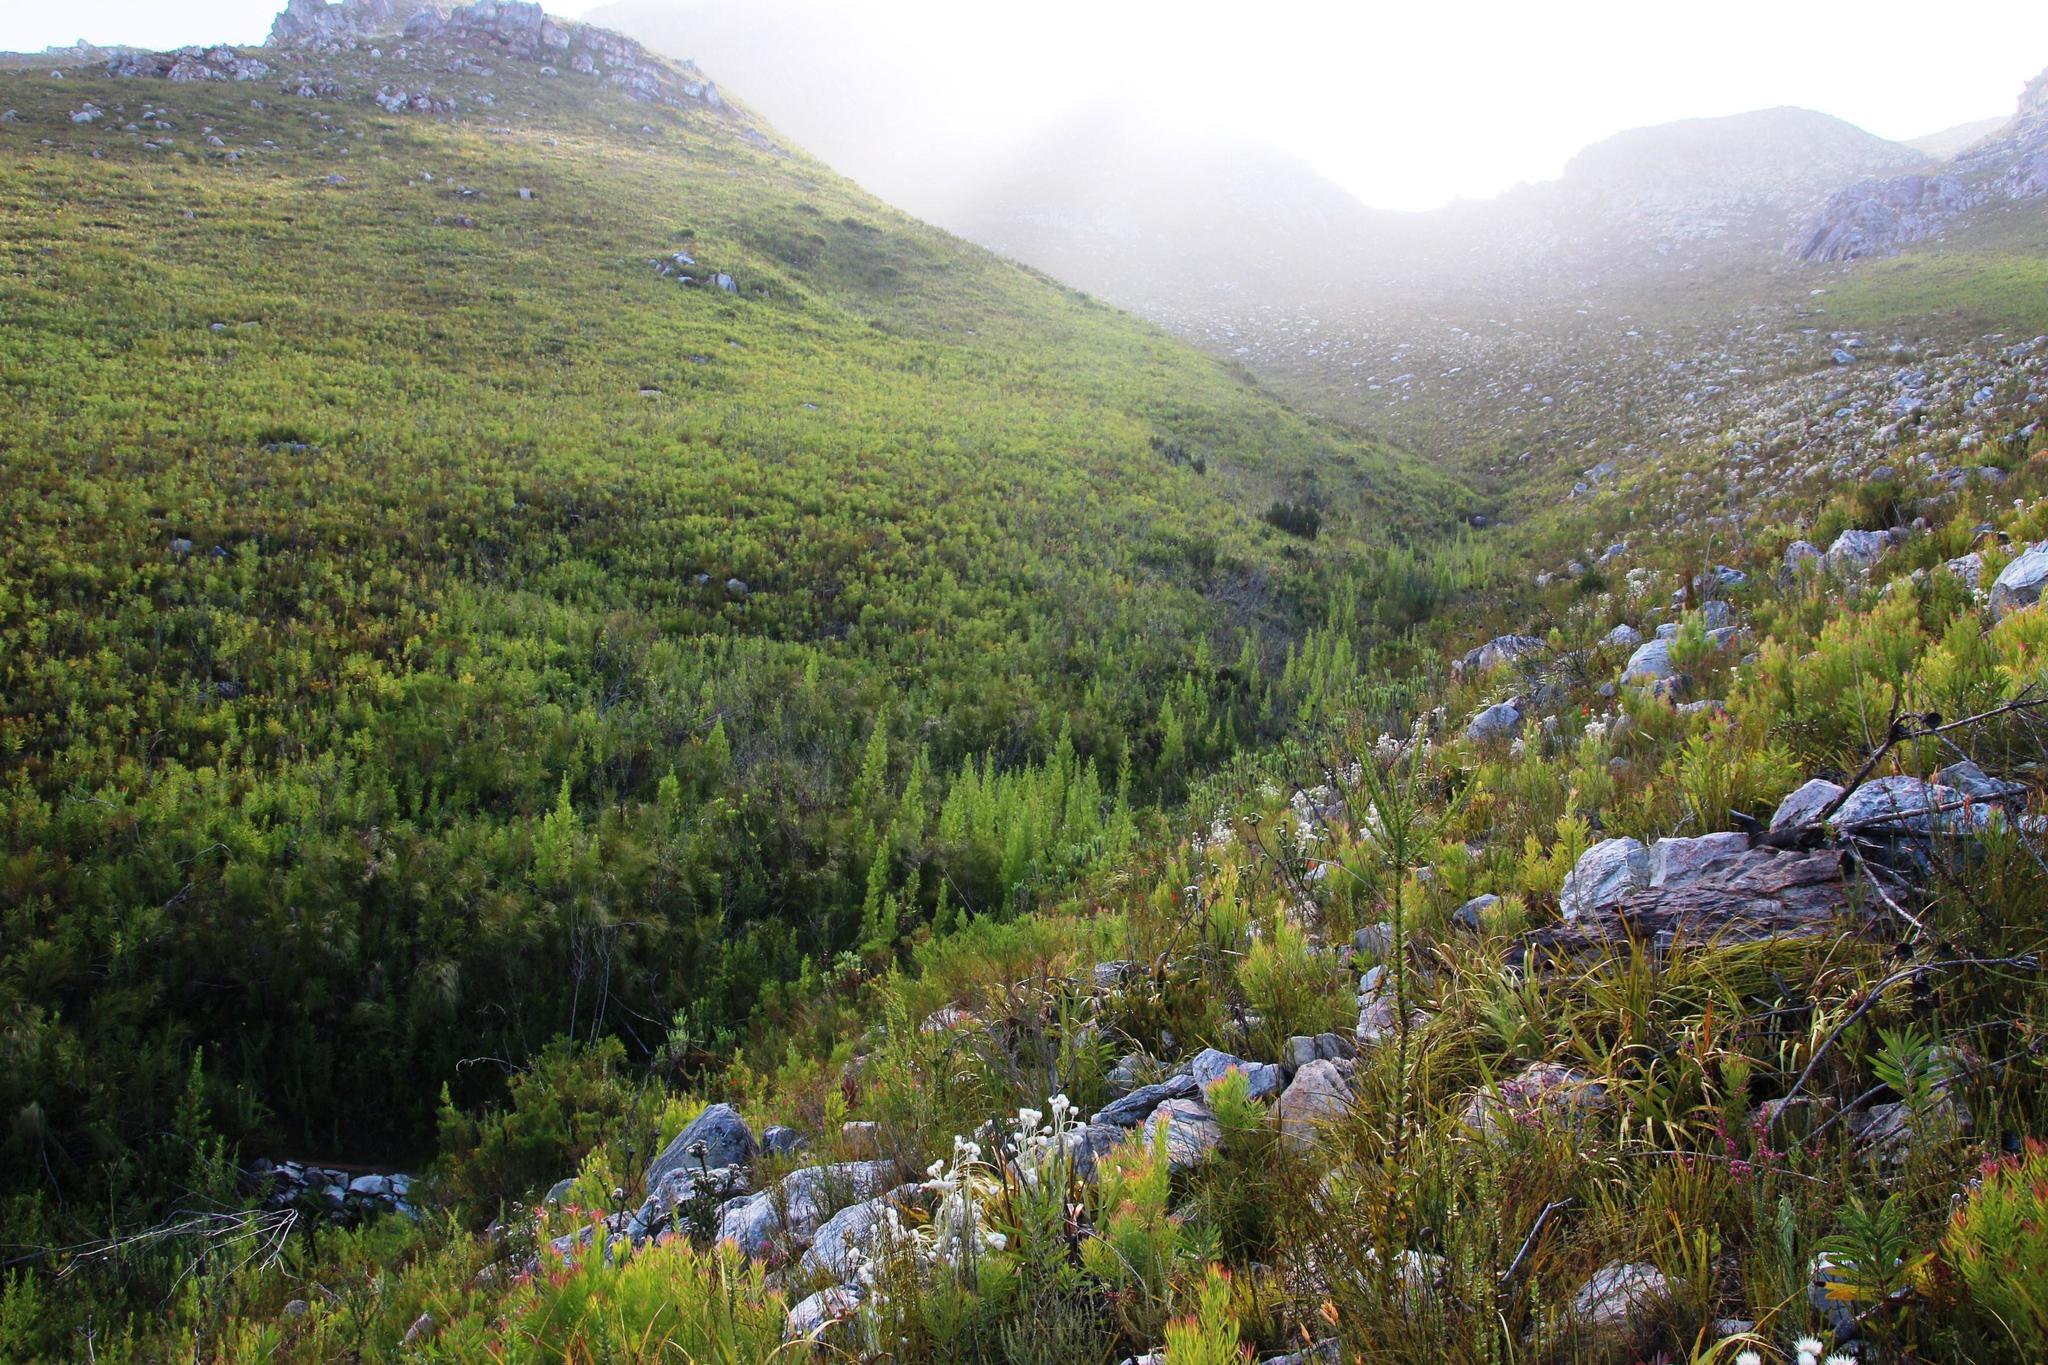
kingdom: Plantae
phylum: Tracheophyta
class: Magnoliopsida
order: Rosales
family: Rosaceae
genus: Cliffortia
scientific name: Cliffortia heterophylla
